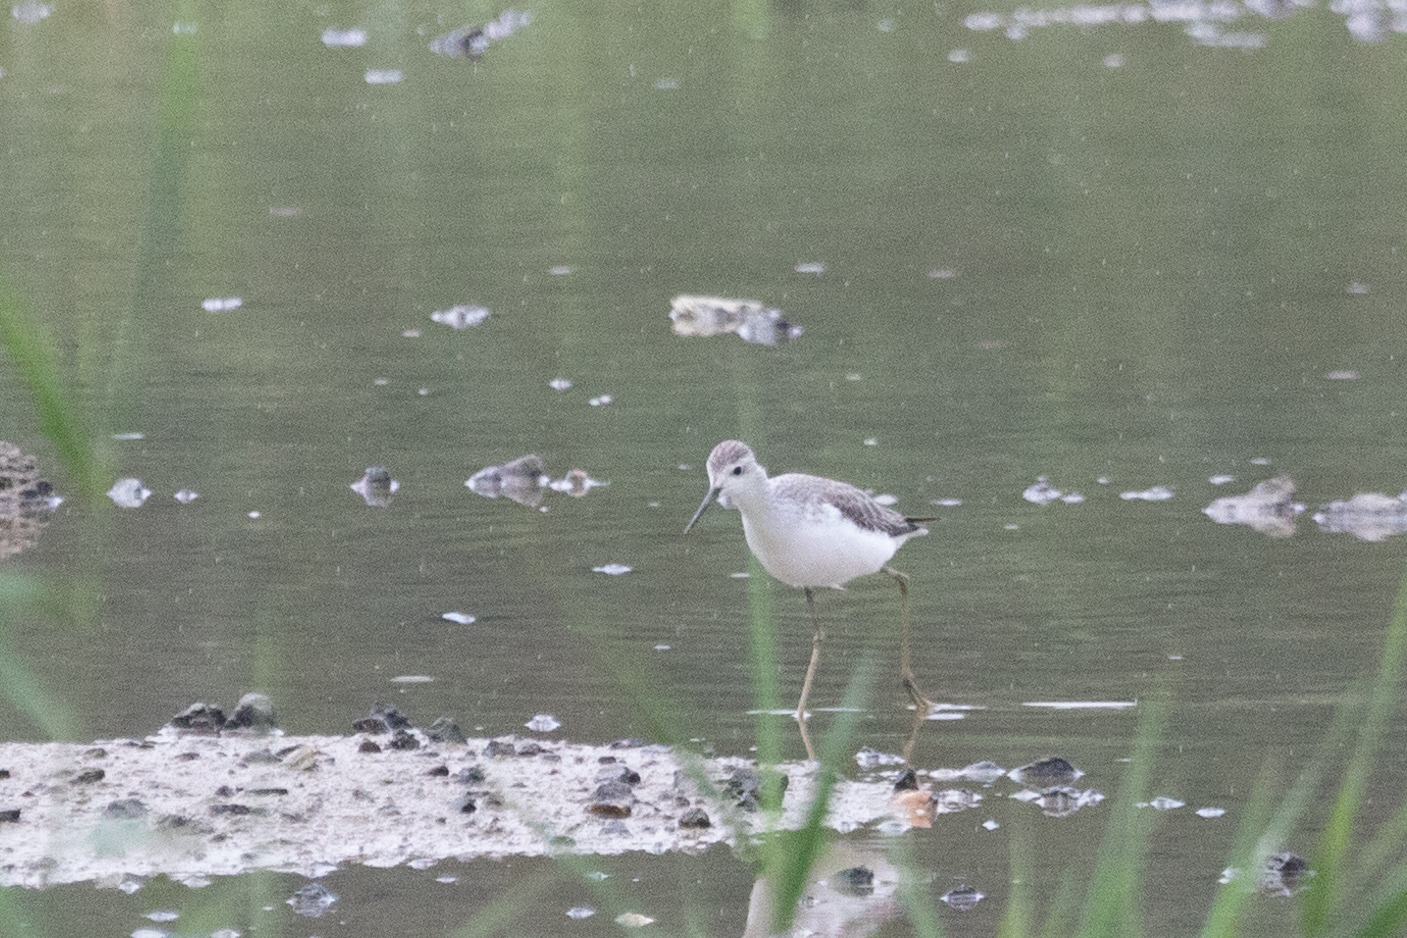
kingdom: Animalia
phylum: Chordata
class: Aves
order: Charadriiformes
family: Scolopacidae
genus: Tringa
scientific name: Tringa stagnatilis
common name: Marsh sandpiper
